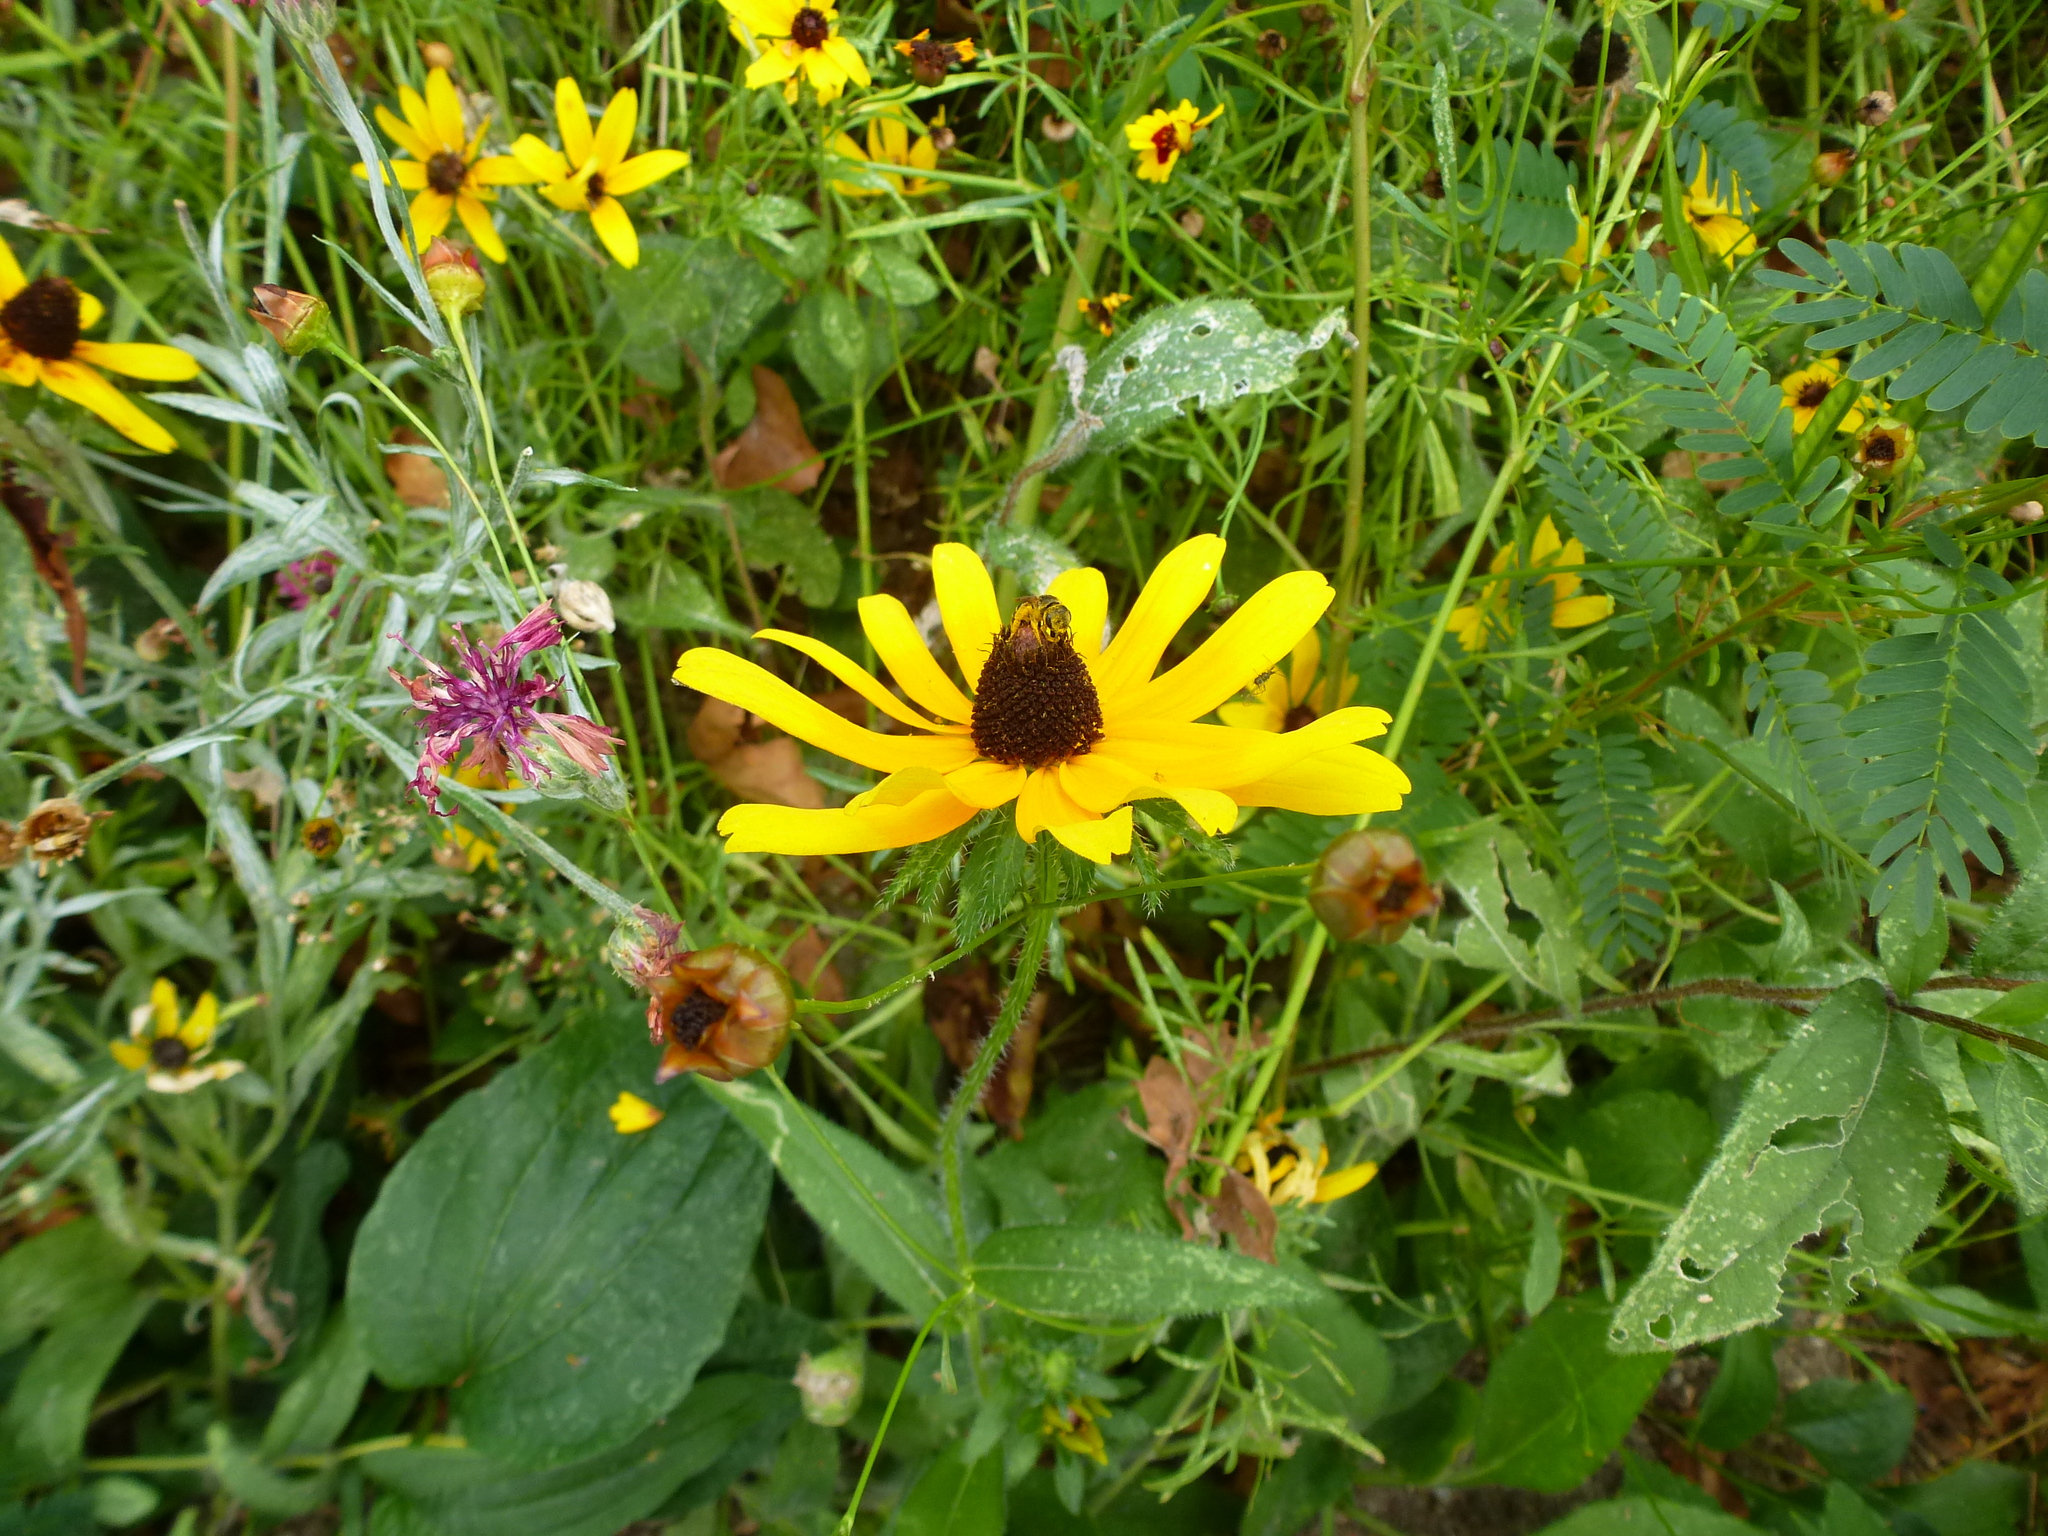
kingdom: Animalia
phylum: Arthropoda
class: Insecta
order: Hymenoptera
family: Halictidae
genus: Halictus
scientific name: Halictus ligatus
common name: Ligated furrow bee
